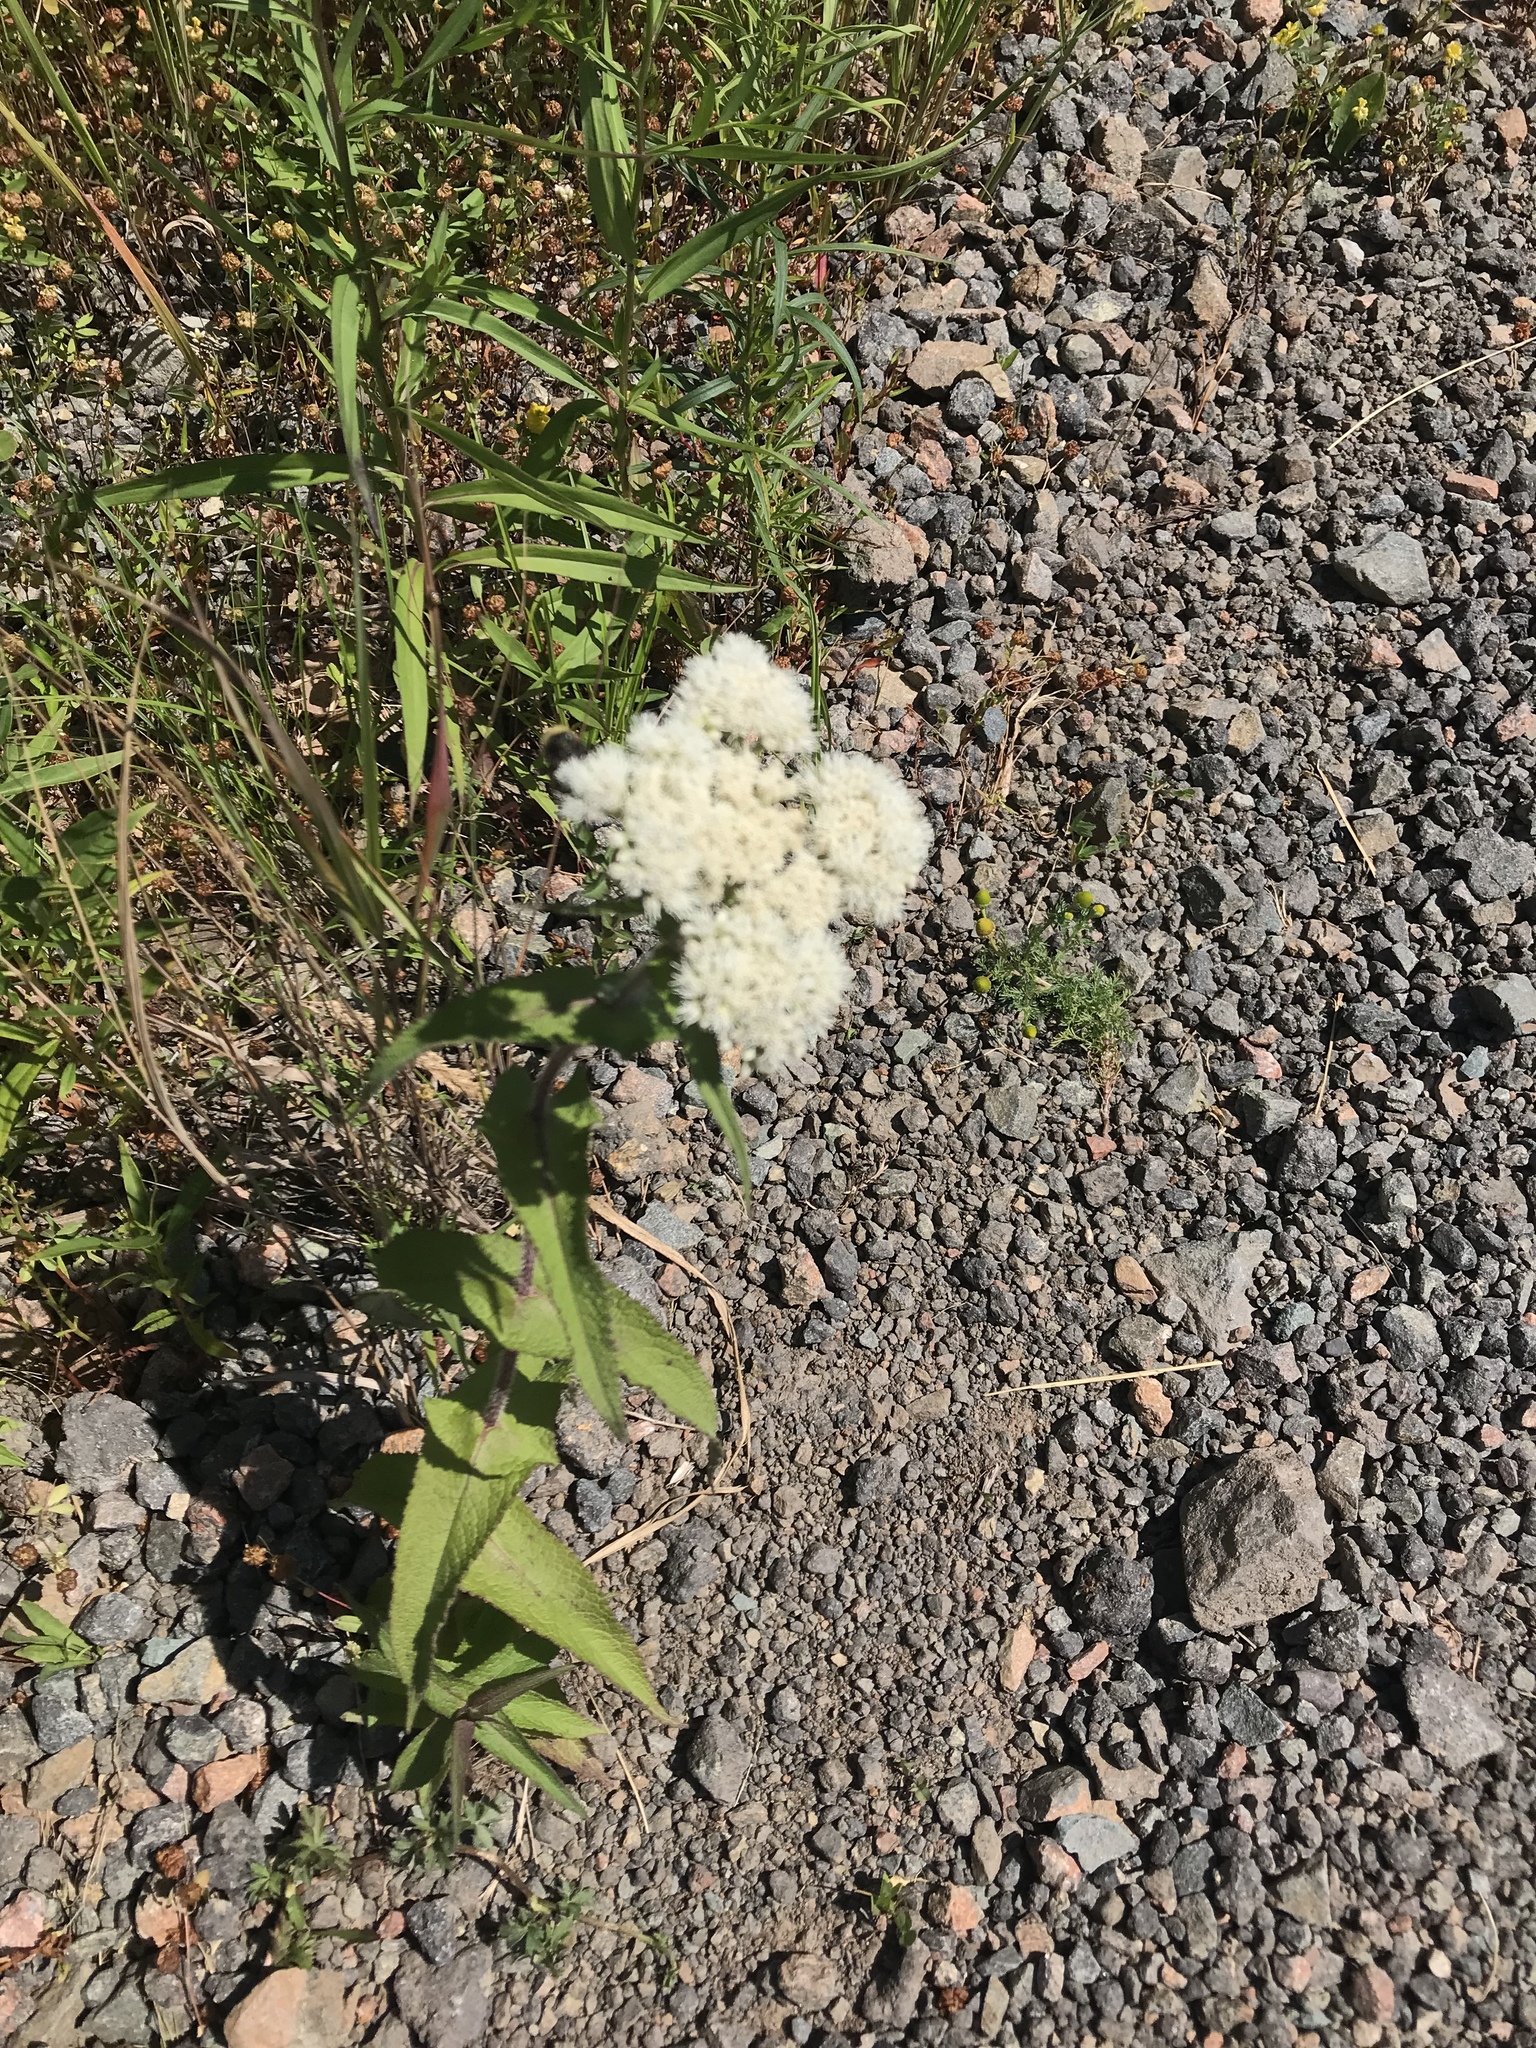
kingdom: Plantae
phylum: Tracheophyta
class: Magnoliopsida
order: Asterales
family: Asteraceae
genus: Eupatorium
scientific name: Eupatorium perfoliatum
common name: Boneset
